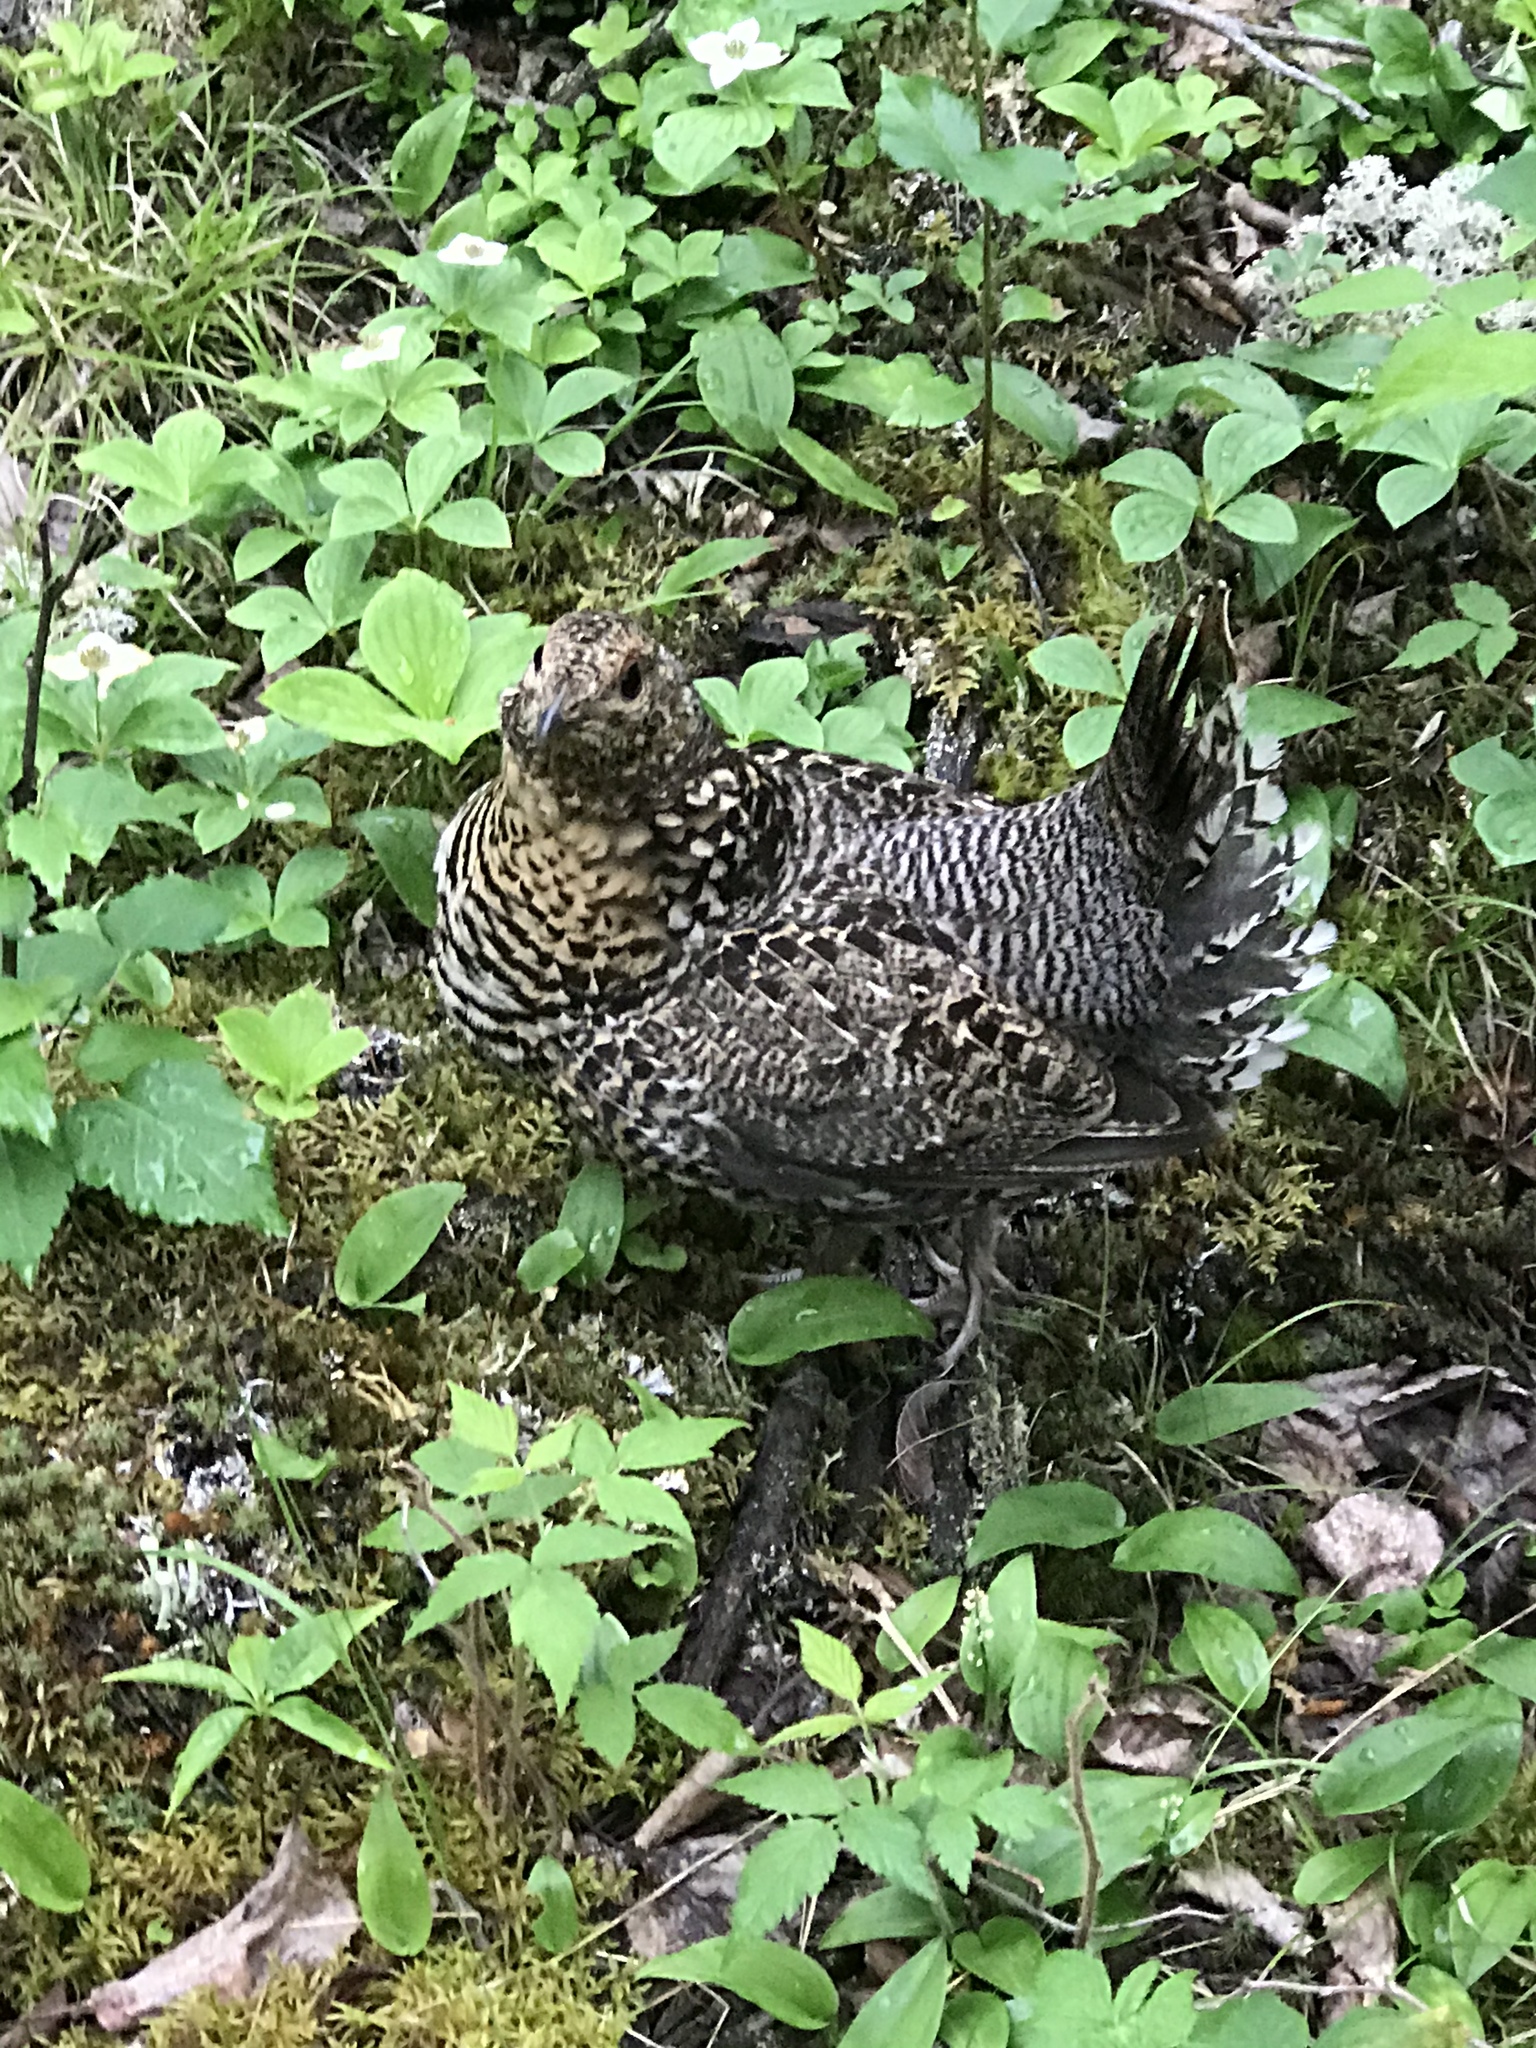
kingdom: Animalia
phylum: Chordata
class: Aves
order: Galliformes
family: Phasianidae
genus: Canachites
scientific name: Canachites canadensis
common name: Spruce grouse
